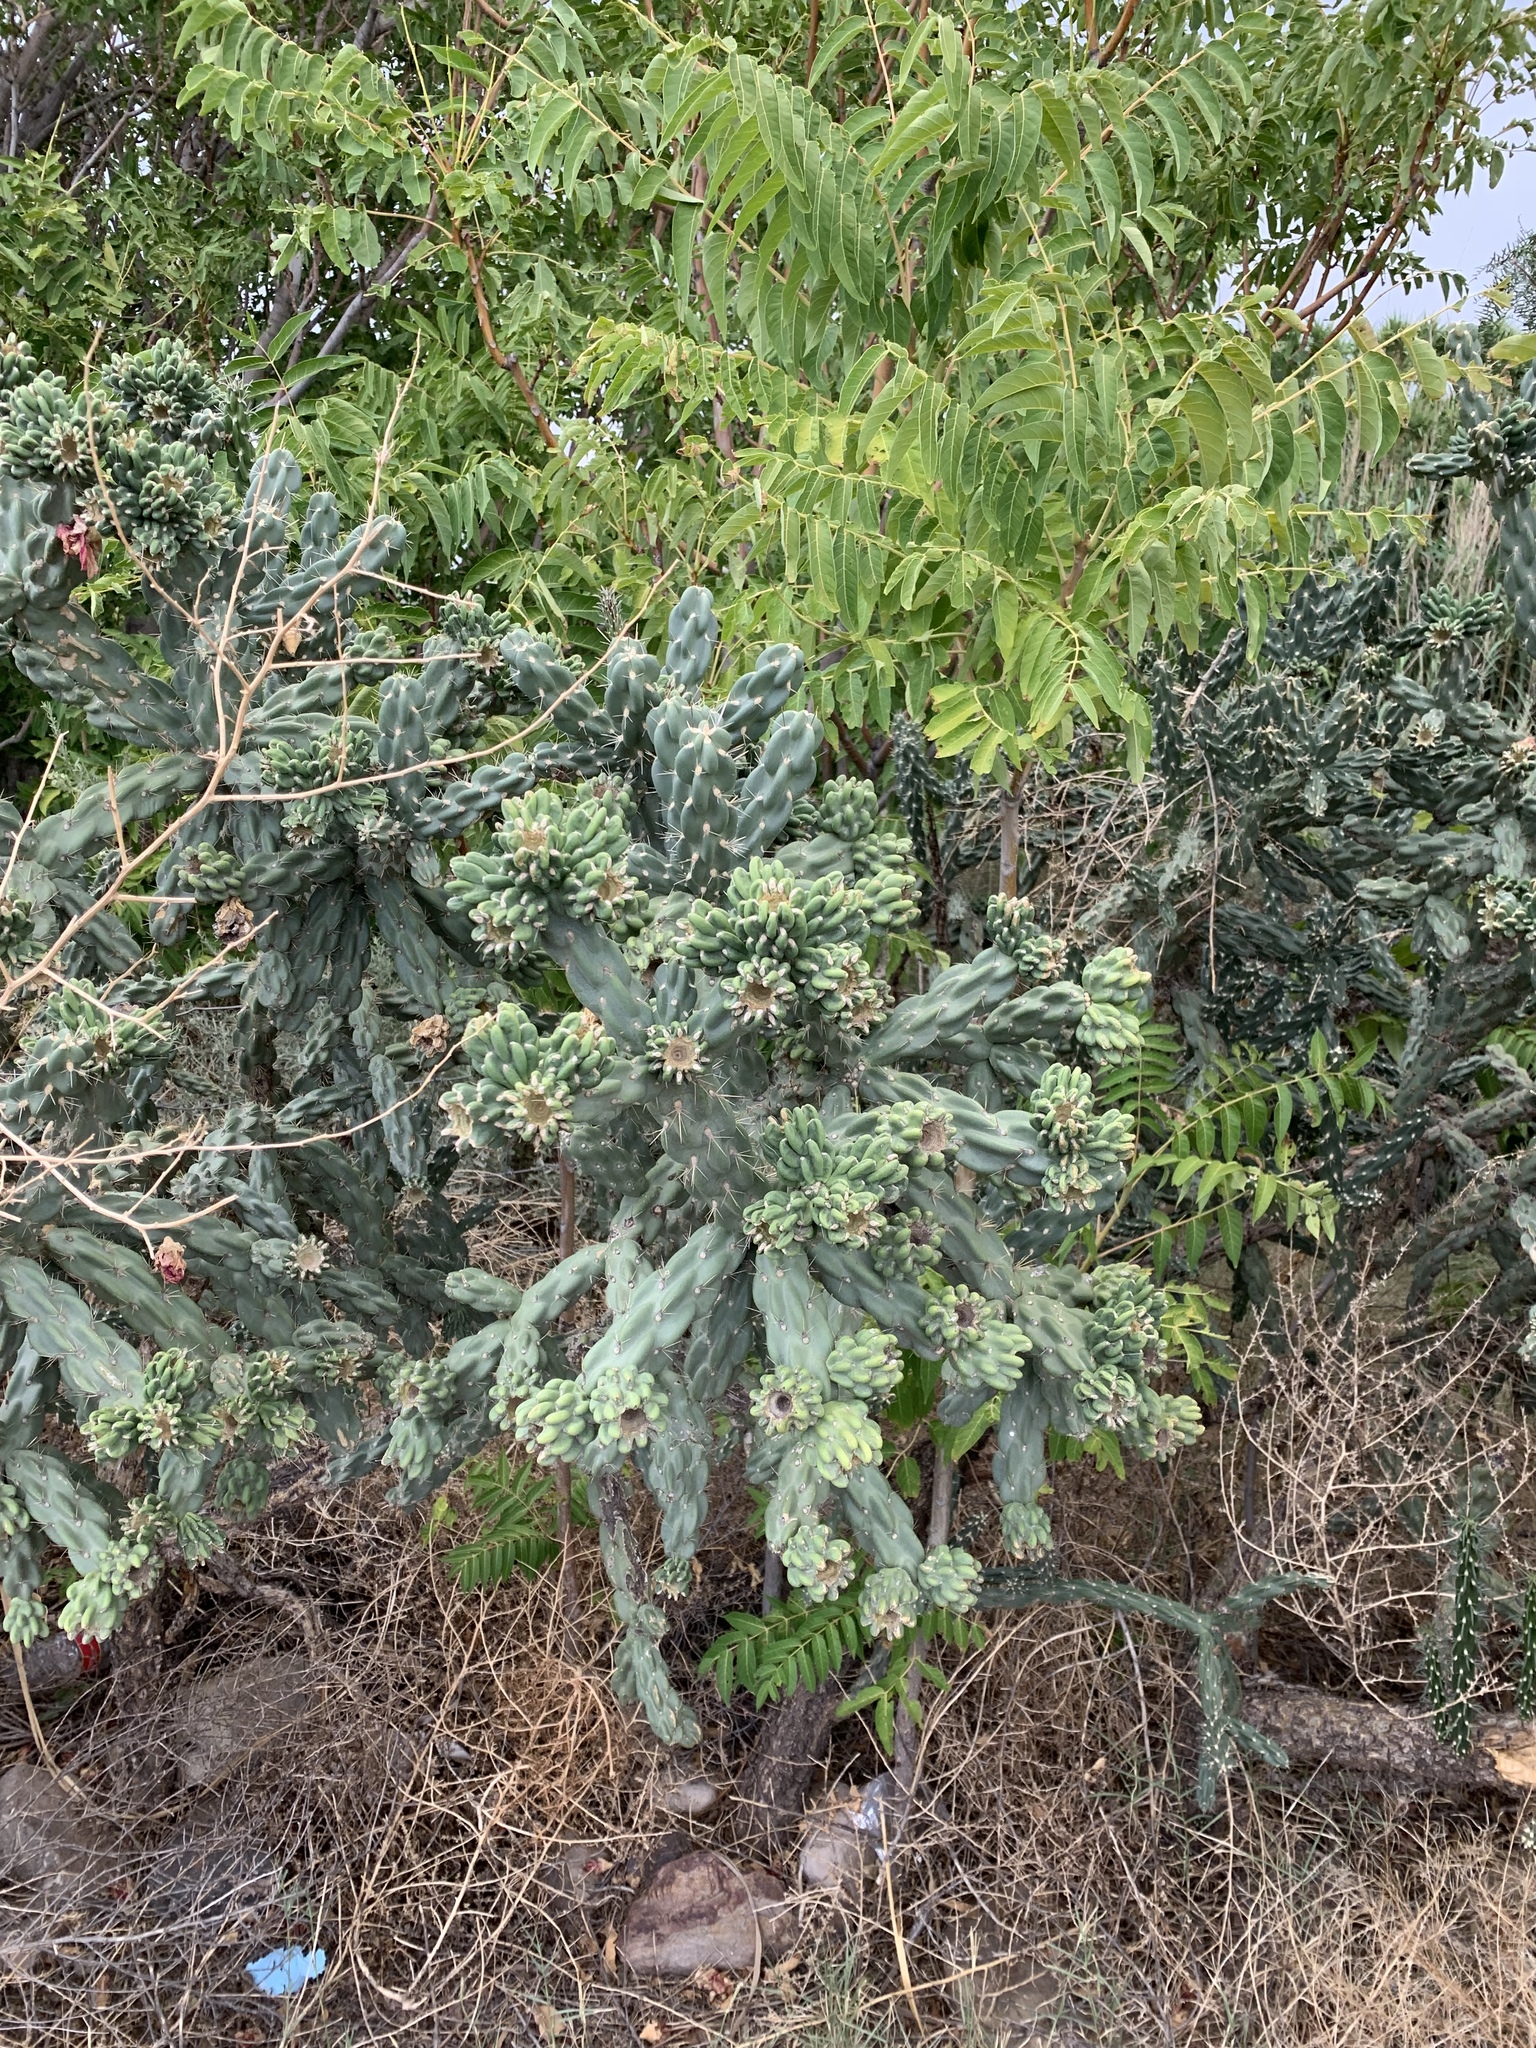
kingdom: Plantae
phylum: Tracheophyta
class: Magnoliopsida
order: Caryophyllales
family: Cactaceae
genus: Cylindropuntia
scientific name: Cylindropuntia imbricata
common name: Candelabrum cactus
